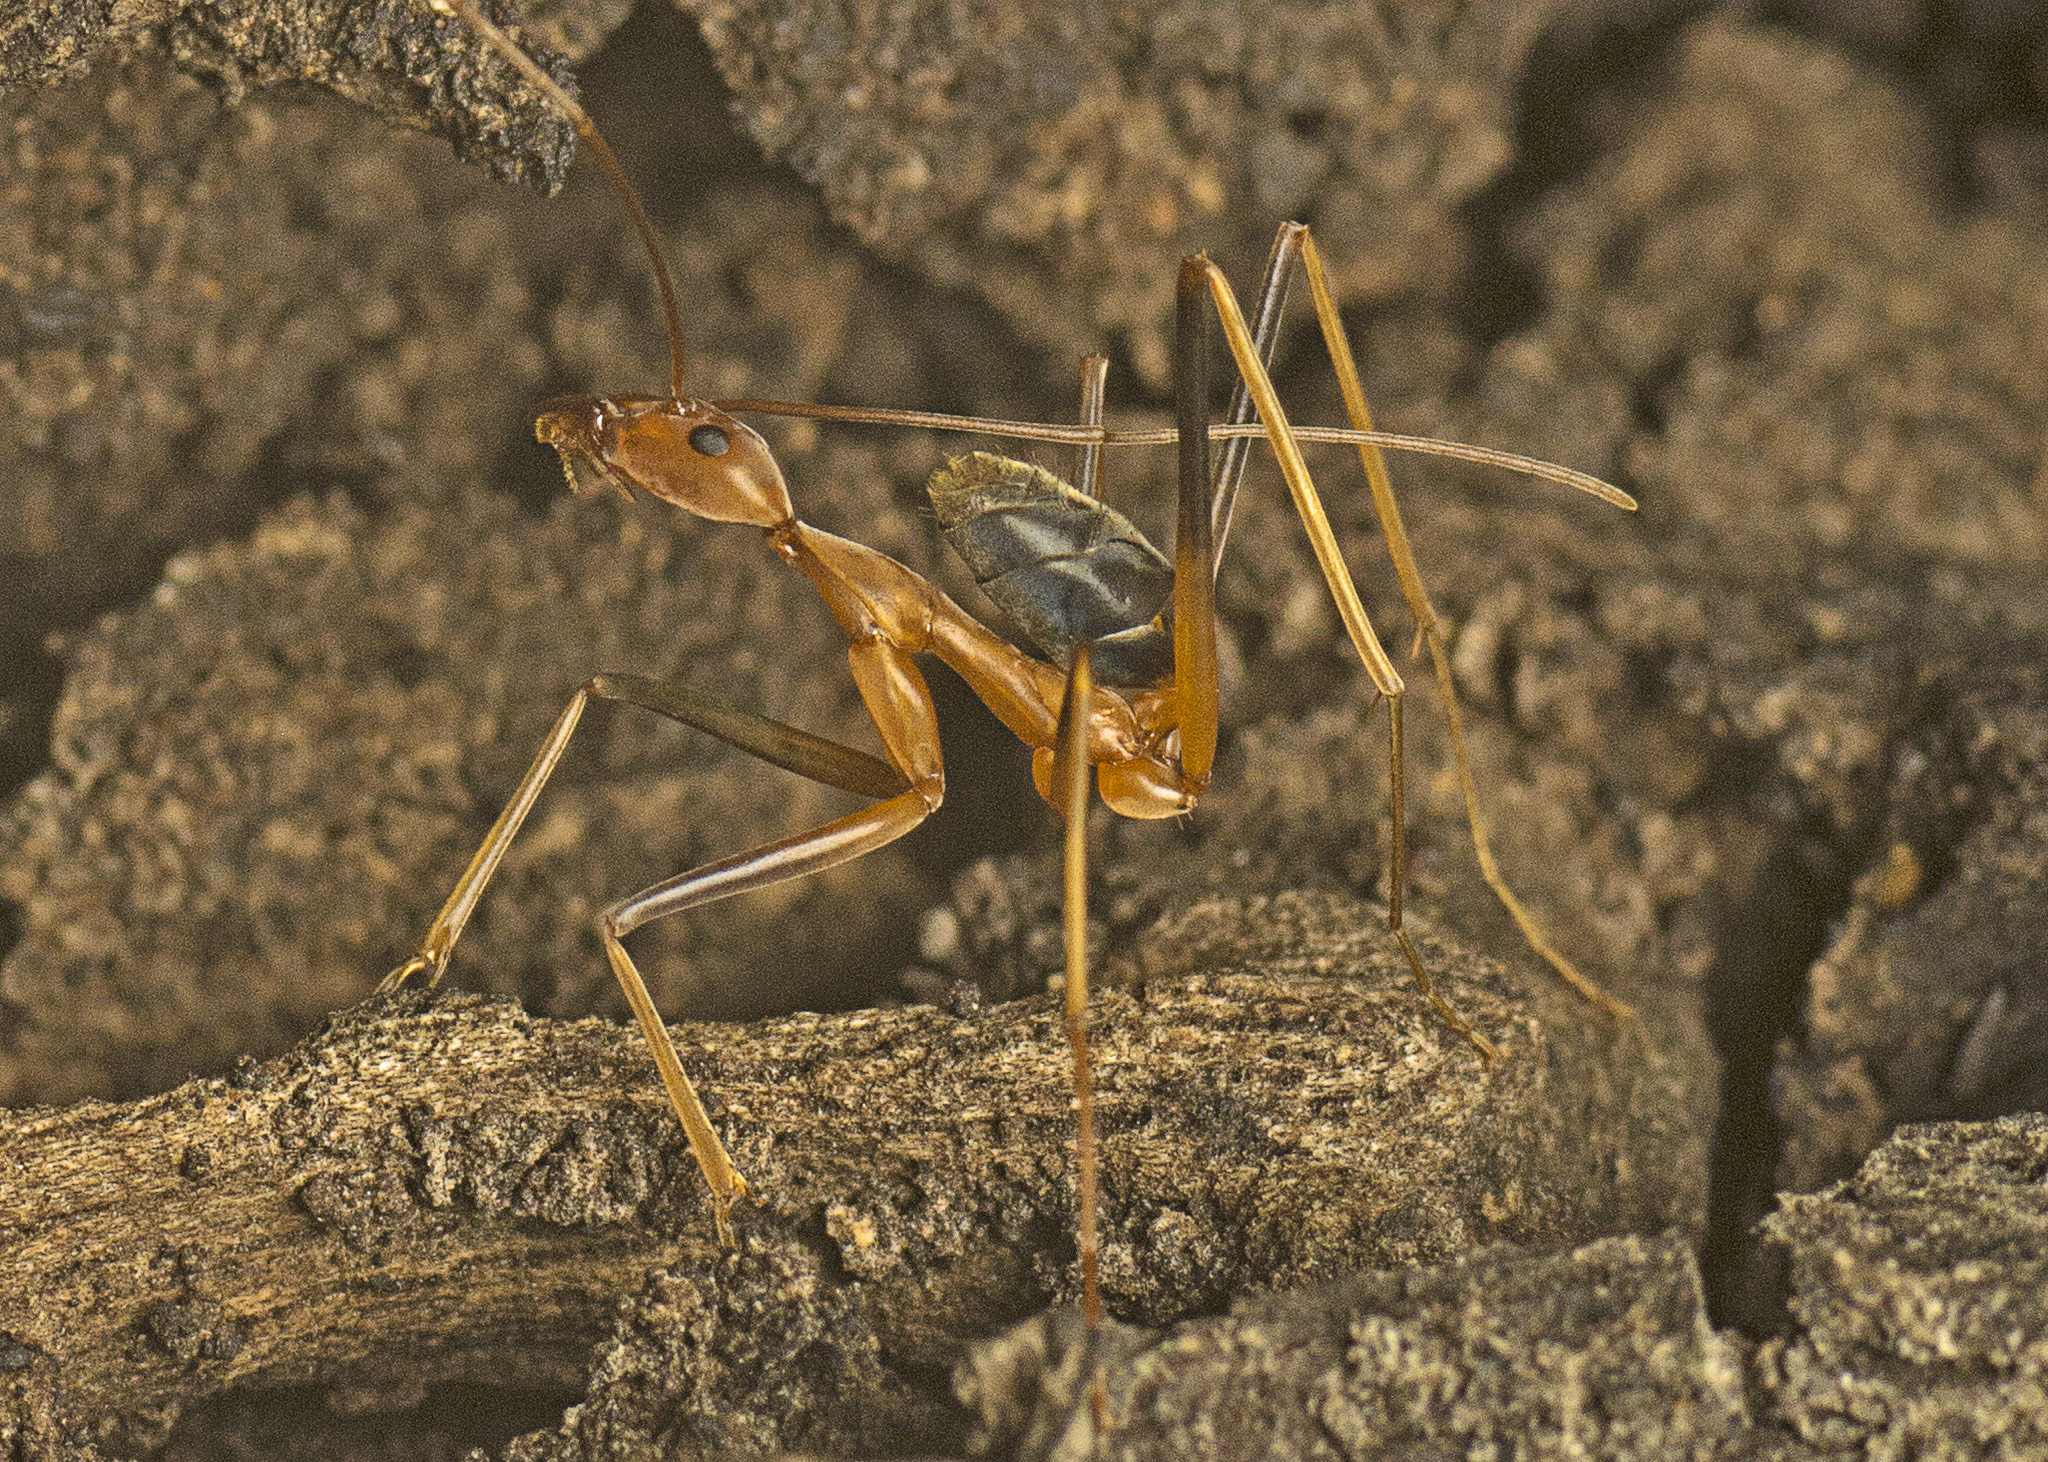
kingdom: Animalia
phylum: Arthropoda
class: Insecta
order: Hymenoptera
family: Formicidae
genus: Leptomyrmex
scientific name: Leptomyrmex rufipes
